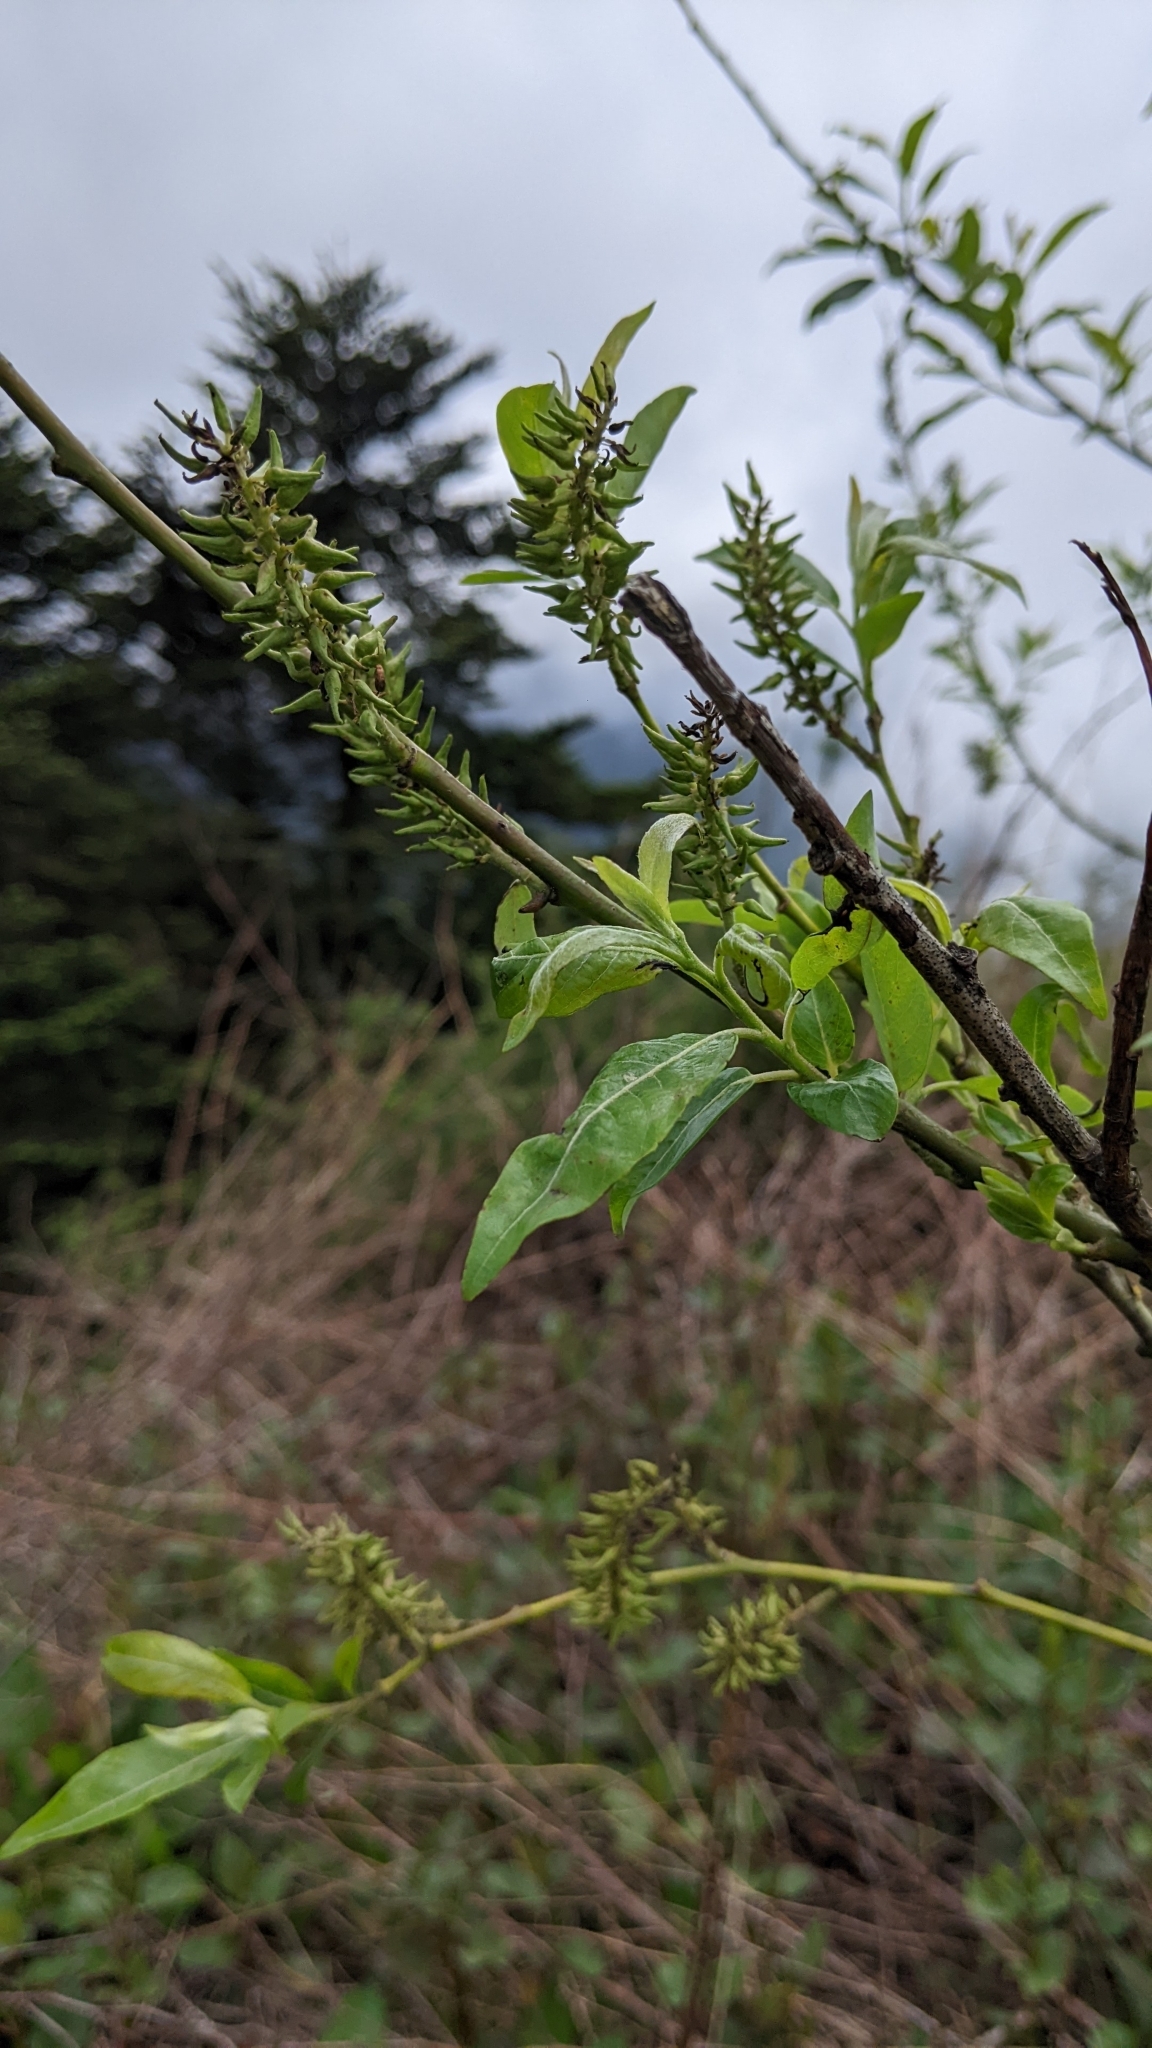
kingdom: Plantae
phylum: Tracheophyta
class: Magnoliopsida
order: Malpighiales
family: Salicaceae
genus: Salix
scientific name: Salix fulvopubescens
